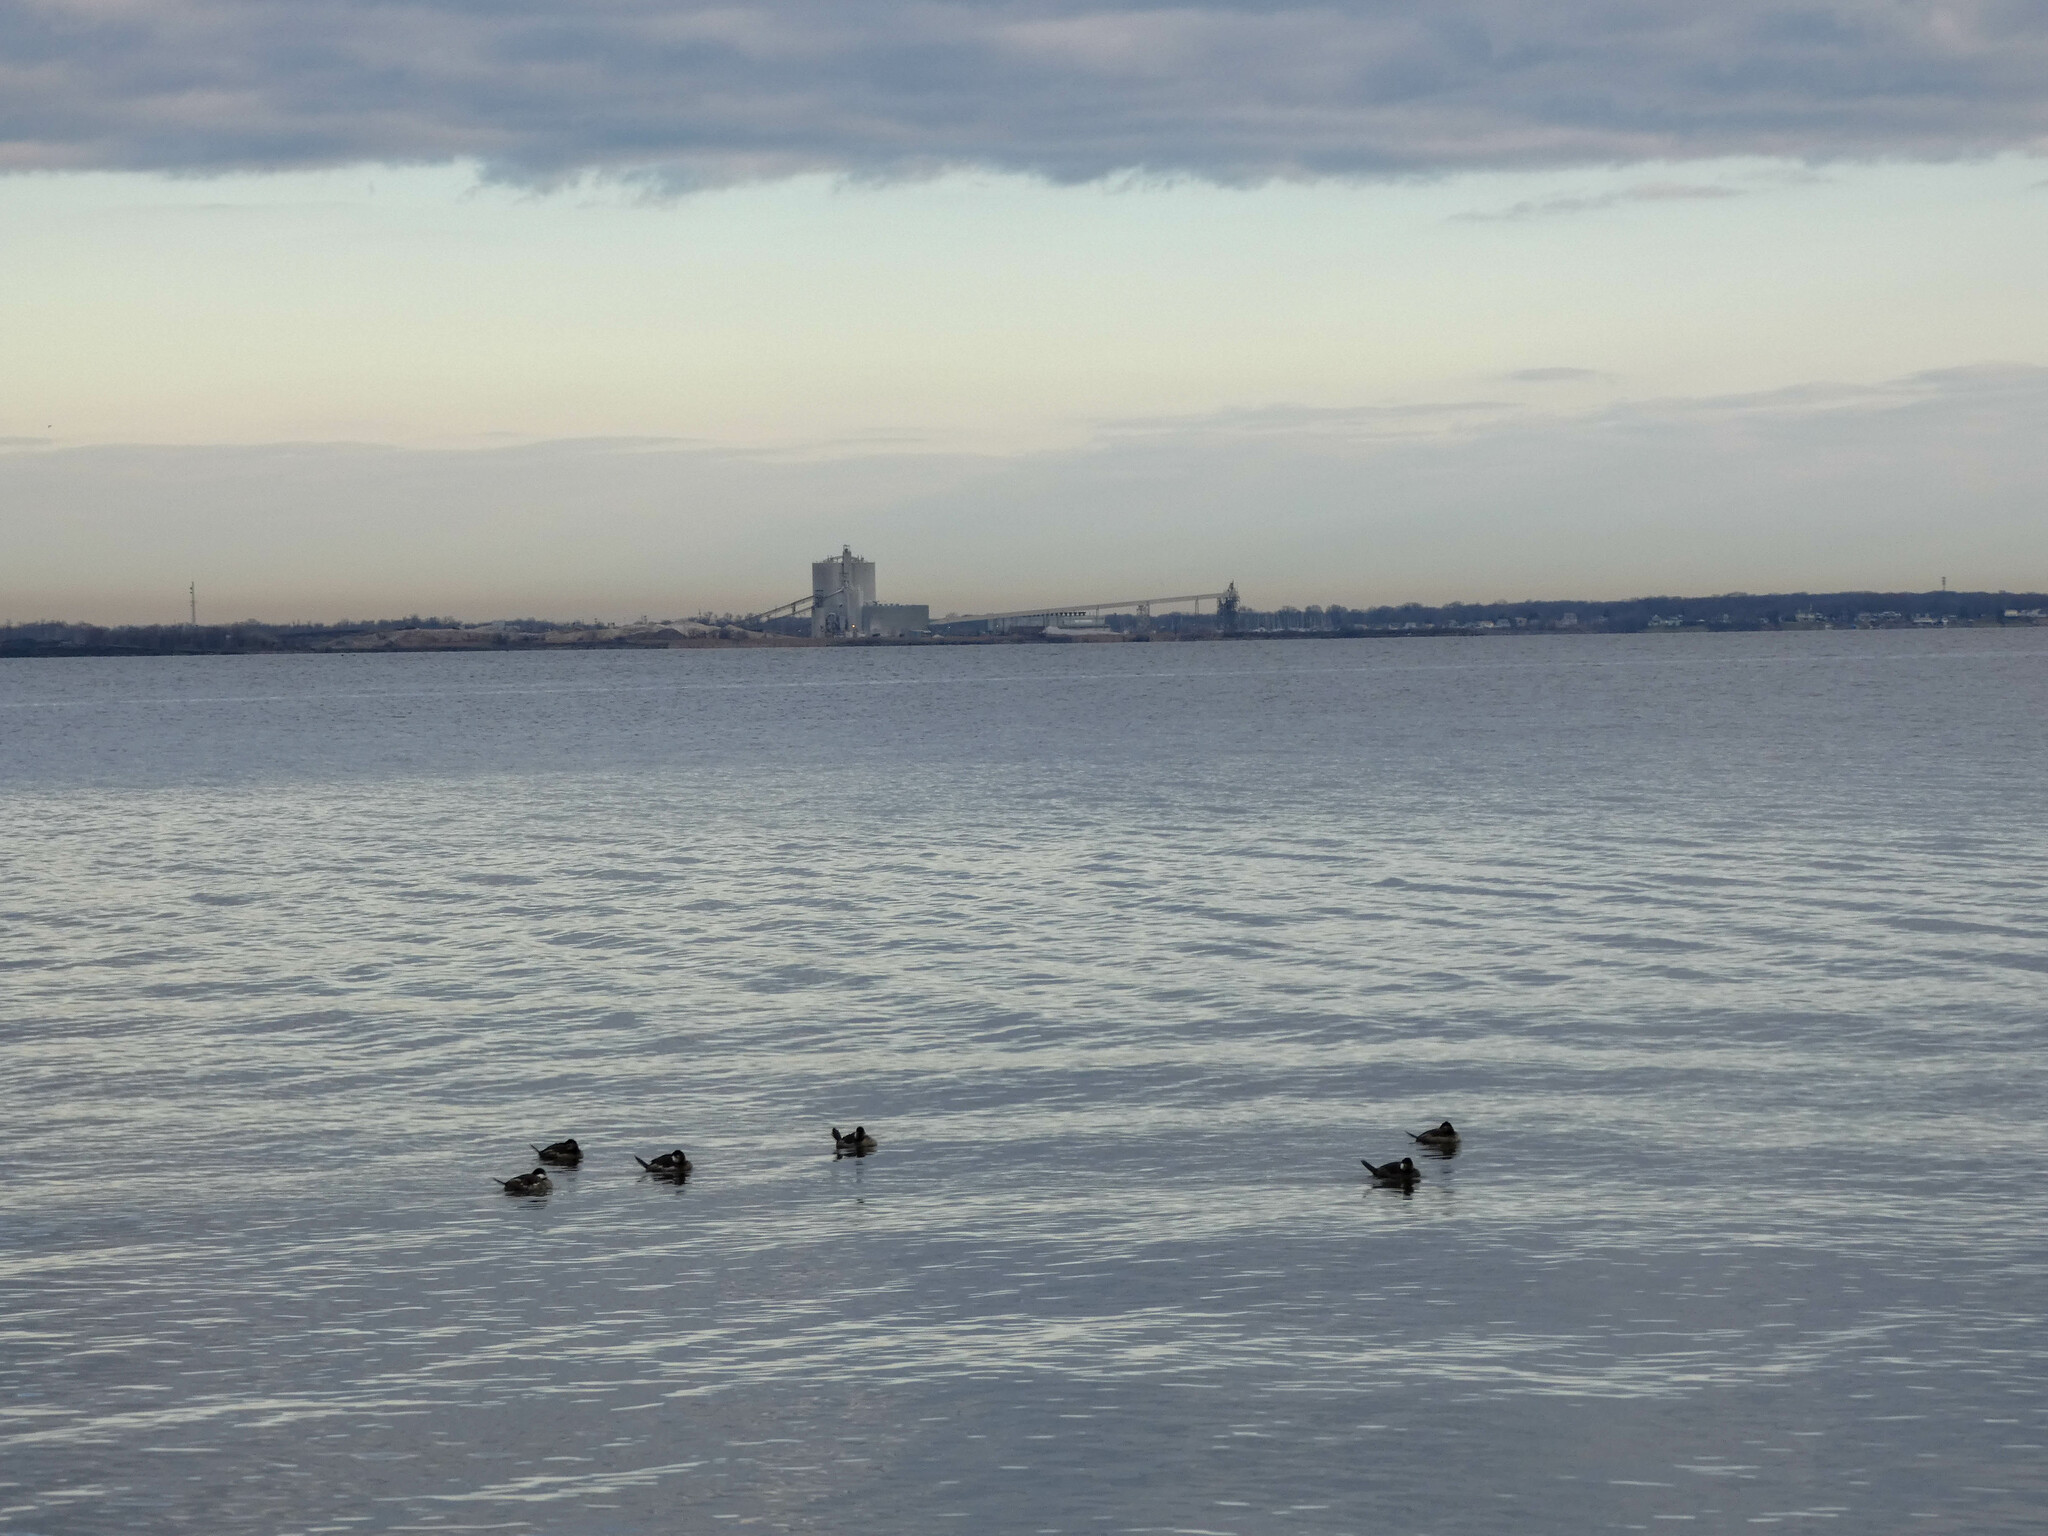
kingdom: Animalia
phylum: Chordata
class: Aves
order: Anseriformes
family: Anatidae
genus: Oxyura
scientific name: Oxyura jamaicensis
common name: Ruddy duck
